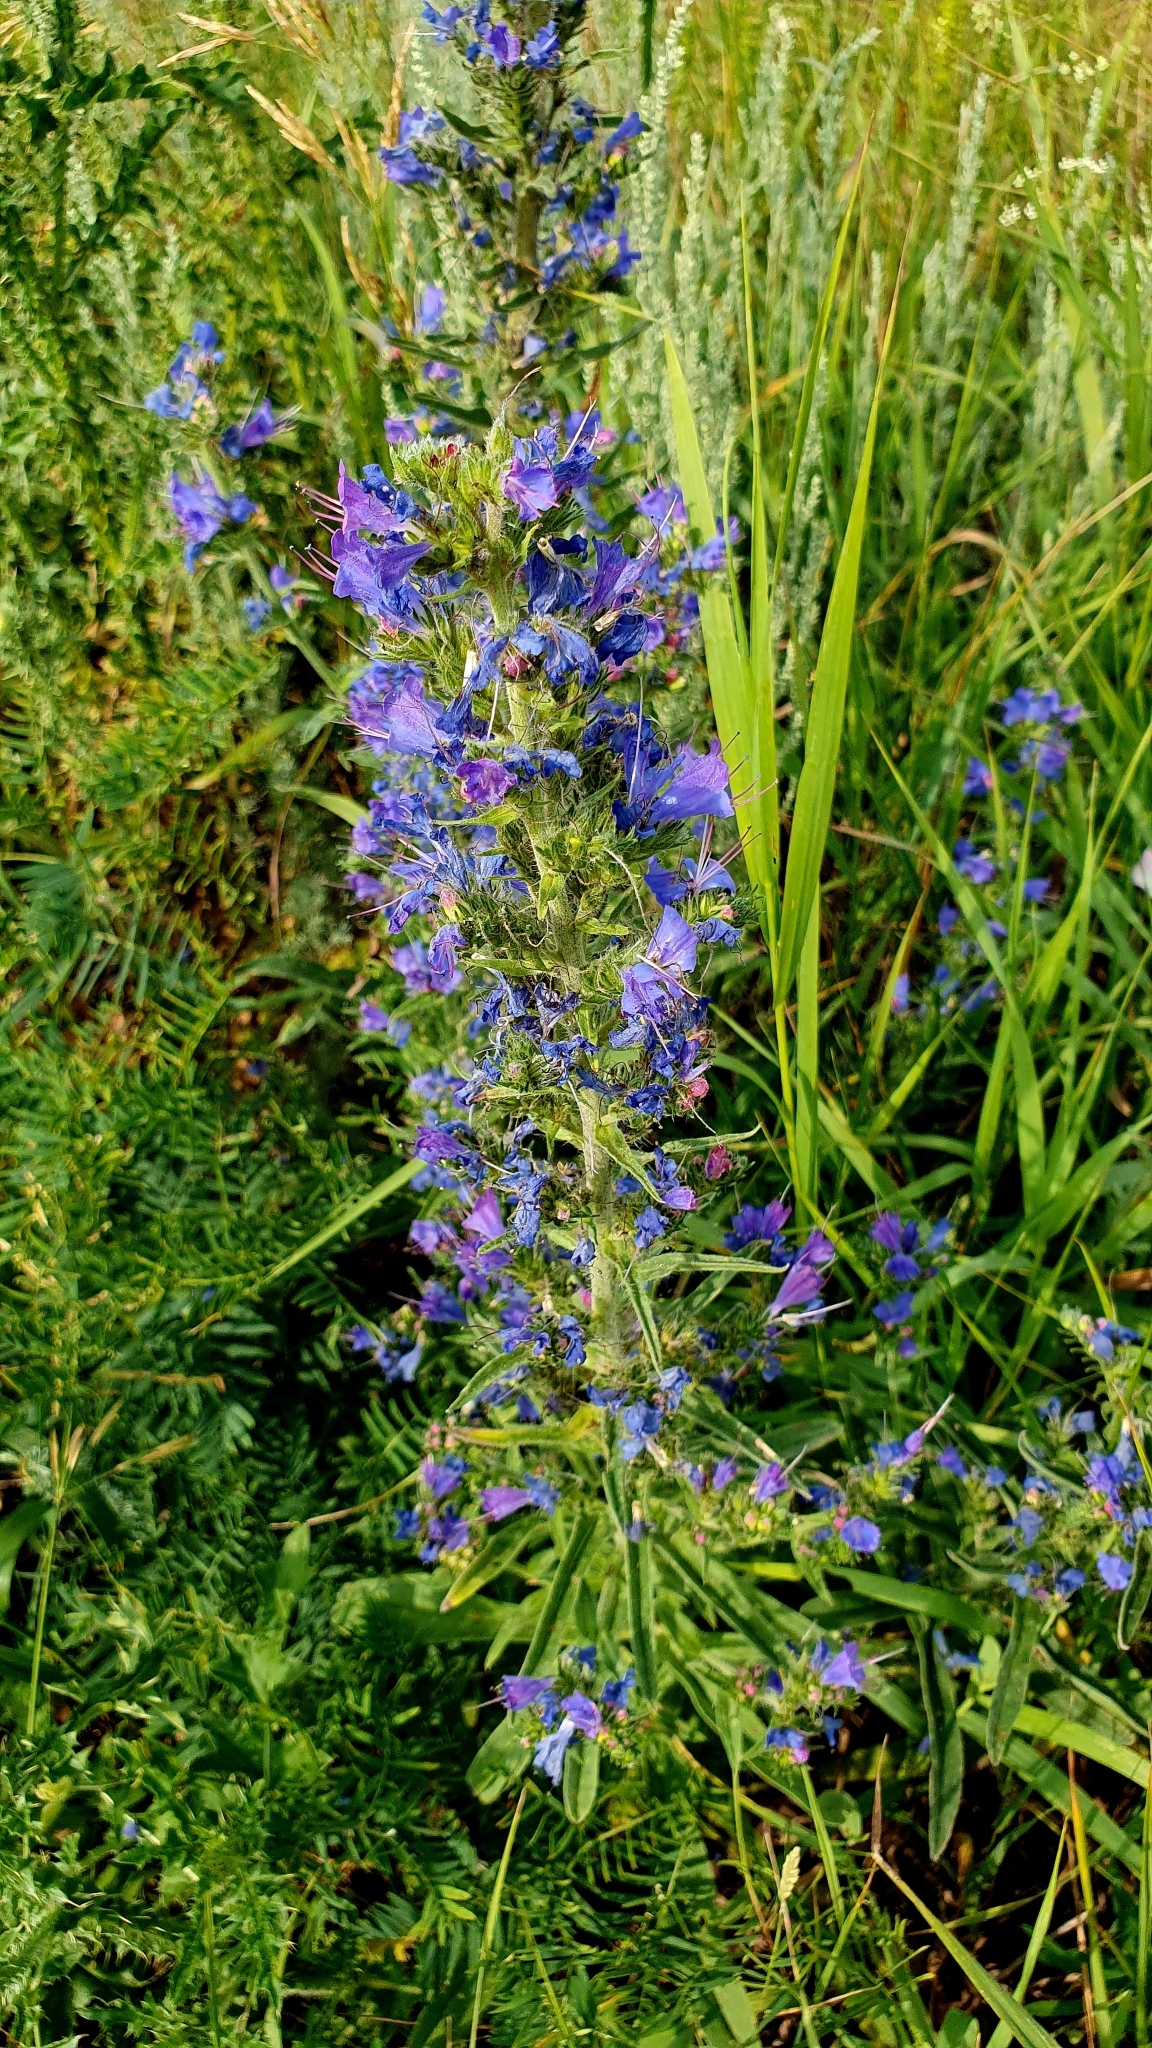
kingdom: Plantae
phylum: Tracheophyta
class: Magnoliopsida
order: Boraginales
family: Boraginaceae
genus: Echium
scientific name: Echium vulgare
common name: Common viper's bugloss
